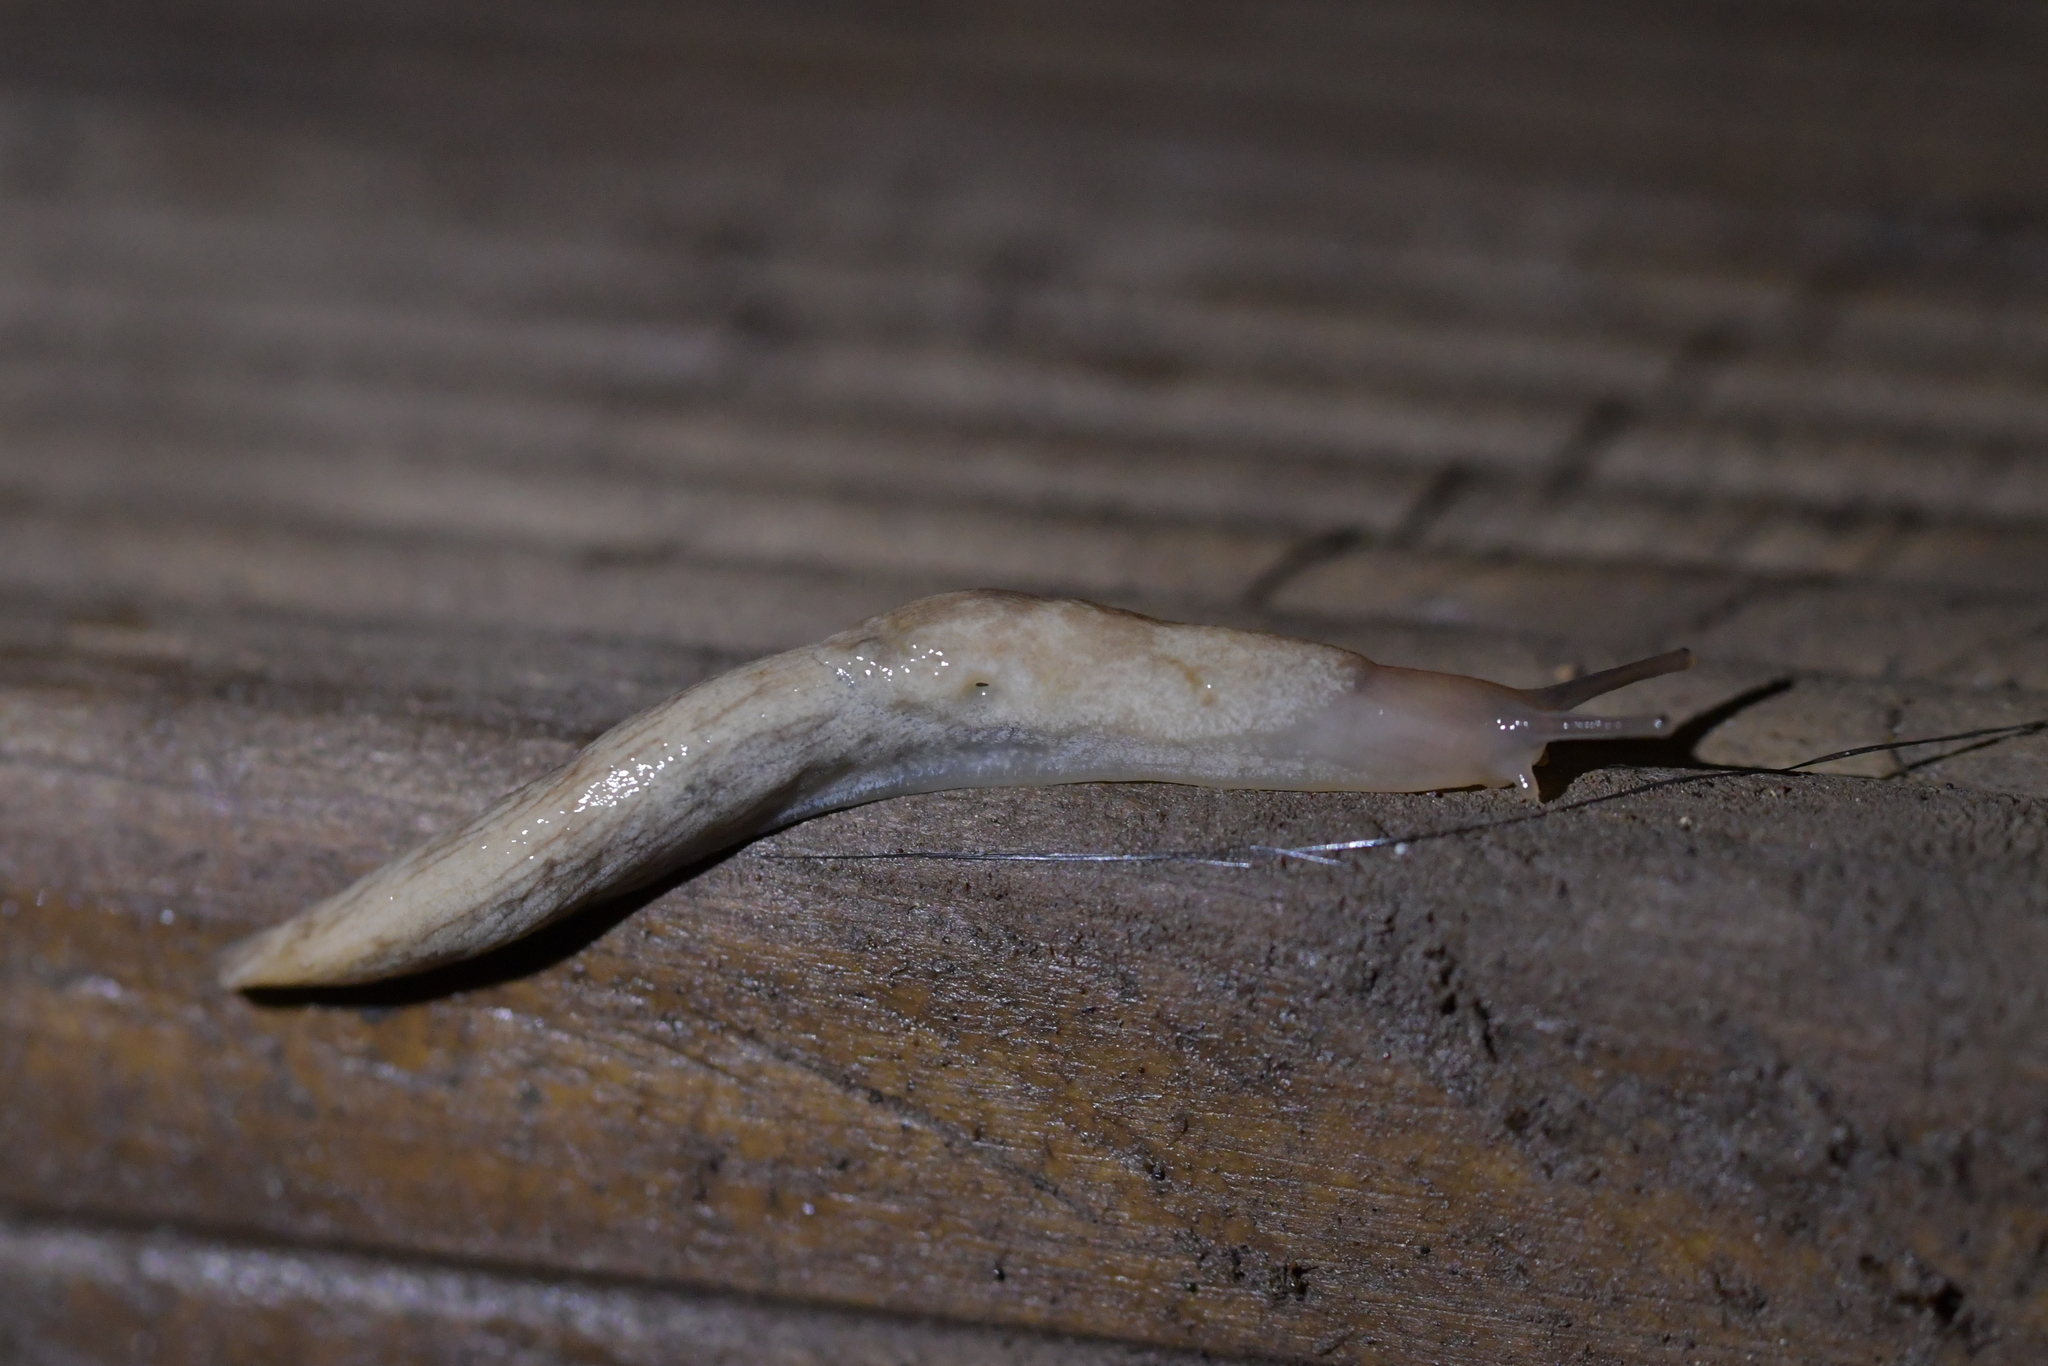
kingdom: Animalia
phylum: Mollusca
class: Gastropoda
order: Stylommatophora
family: Agriolimacidae
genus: Deroceras
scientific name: Deroceras reticulatum
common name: Gray field slug
